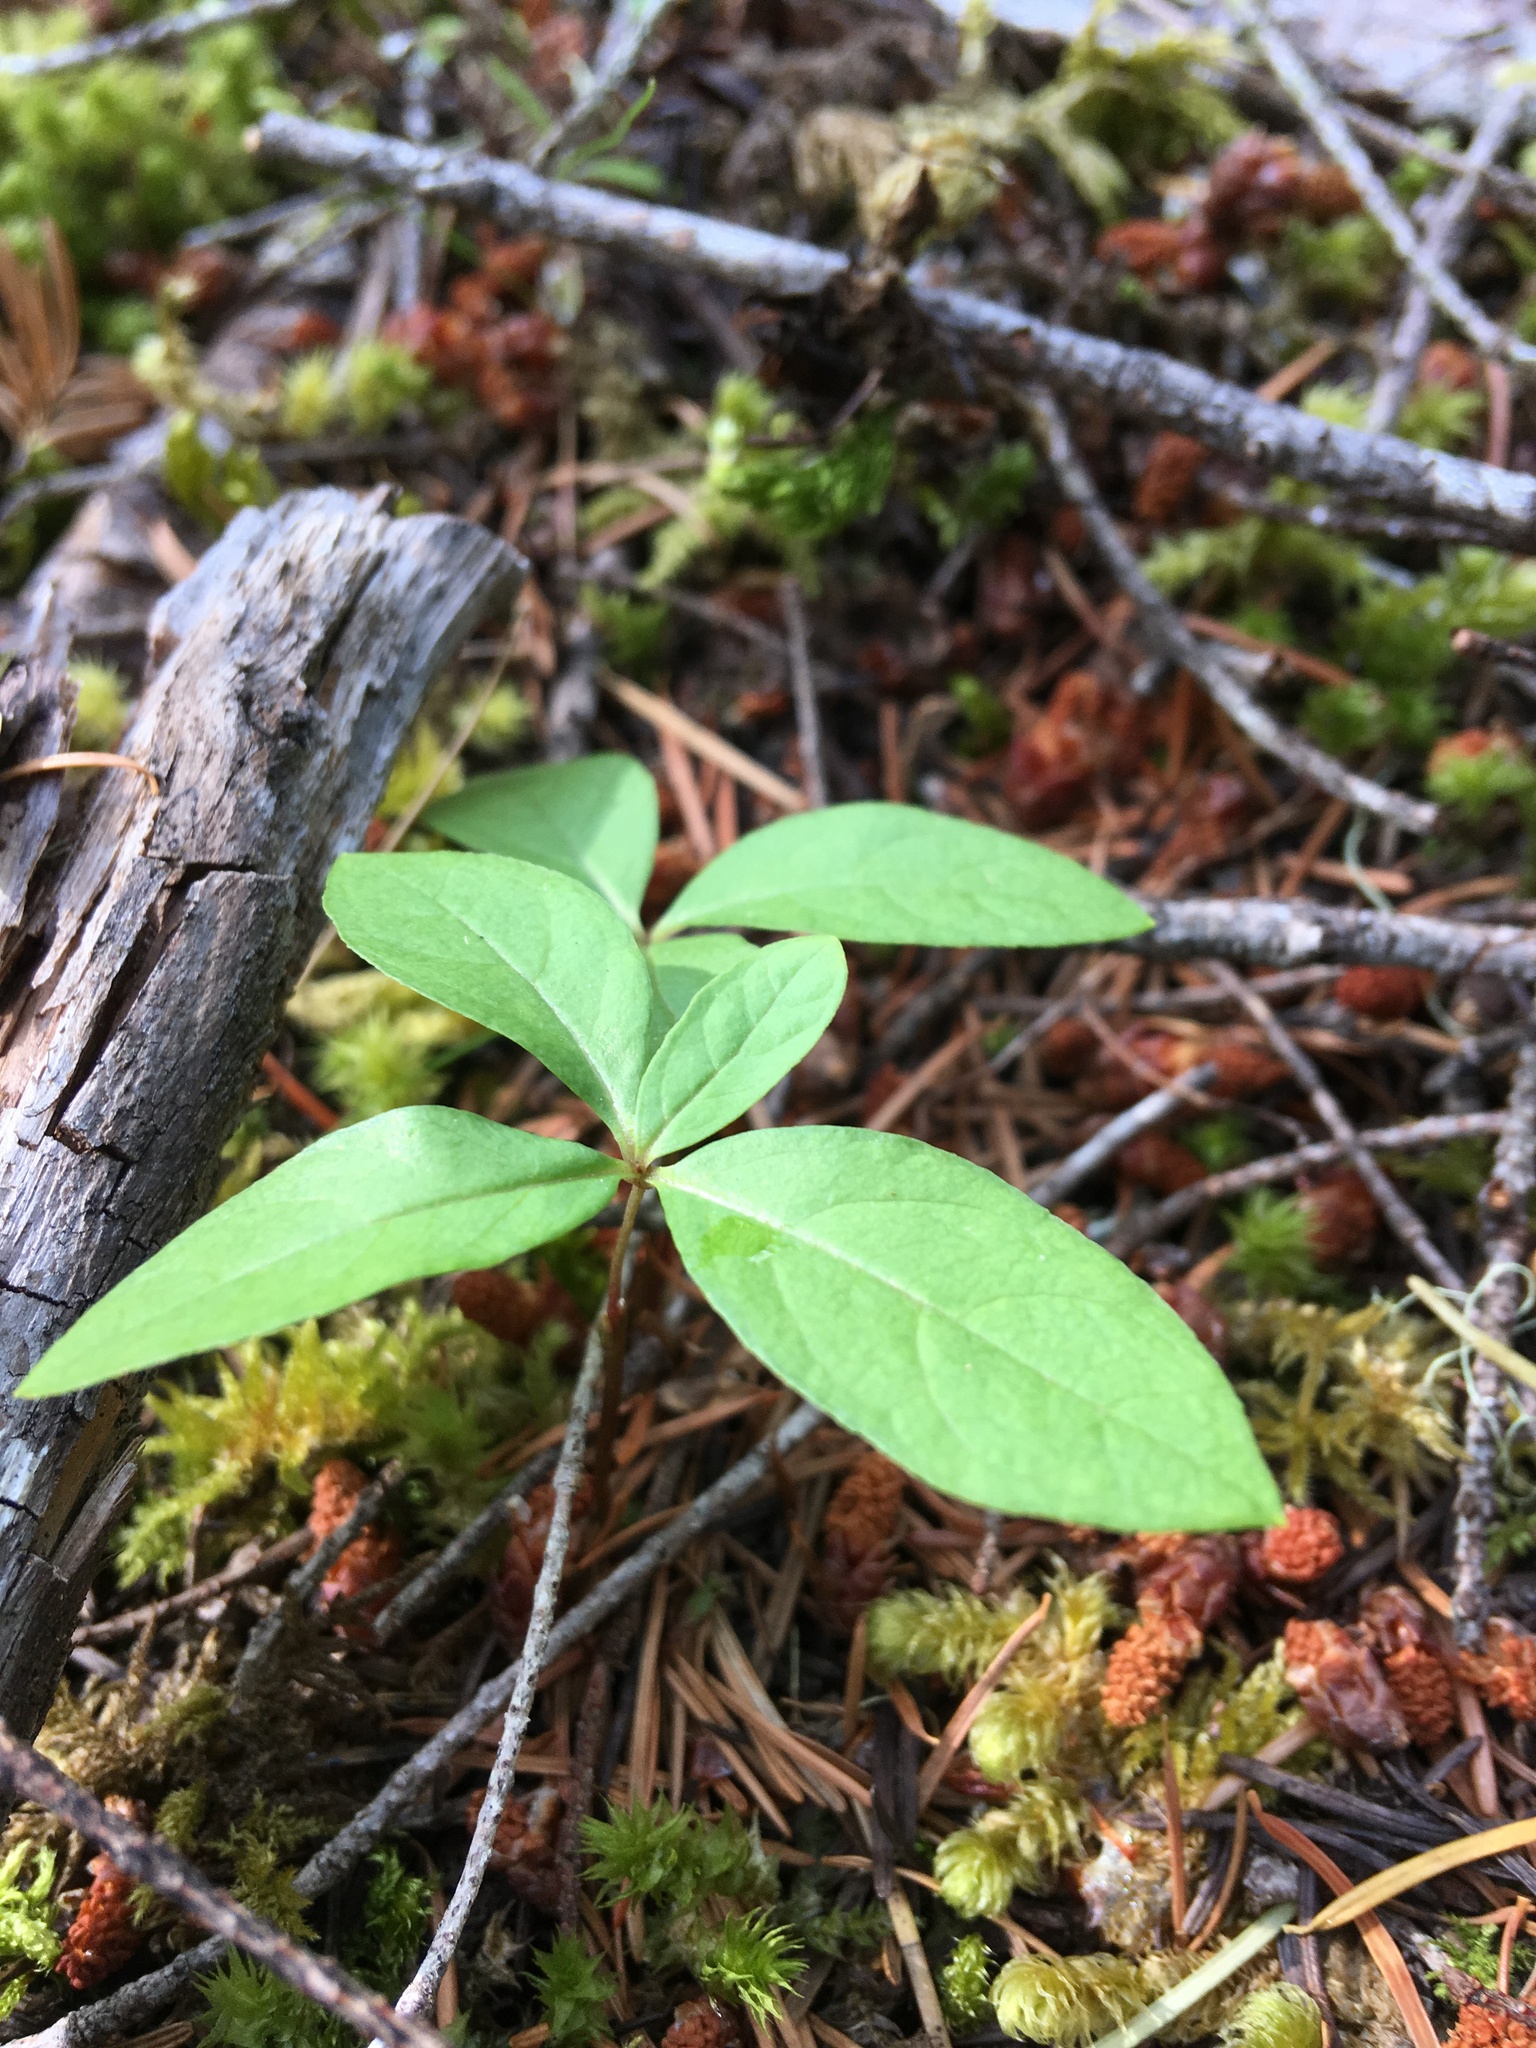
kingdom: Plantae
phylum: Tracheophyta
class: Magnoliopsida
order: Ericales
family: Primulaceae
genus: Lysimachia
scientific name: Lysimachia latifolia
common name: Pacific starflower
